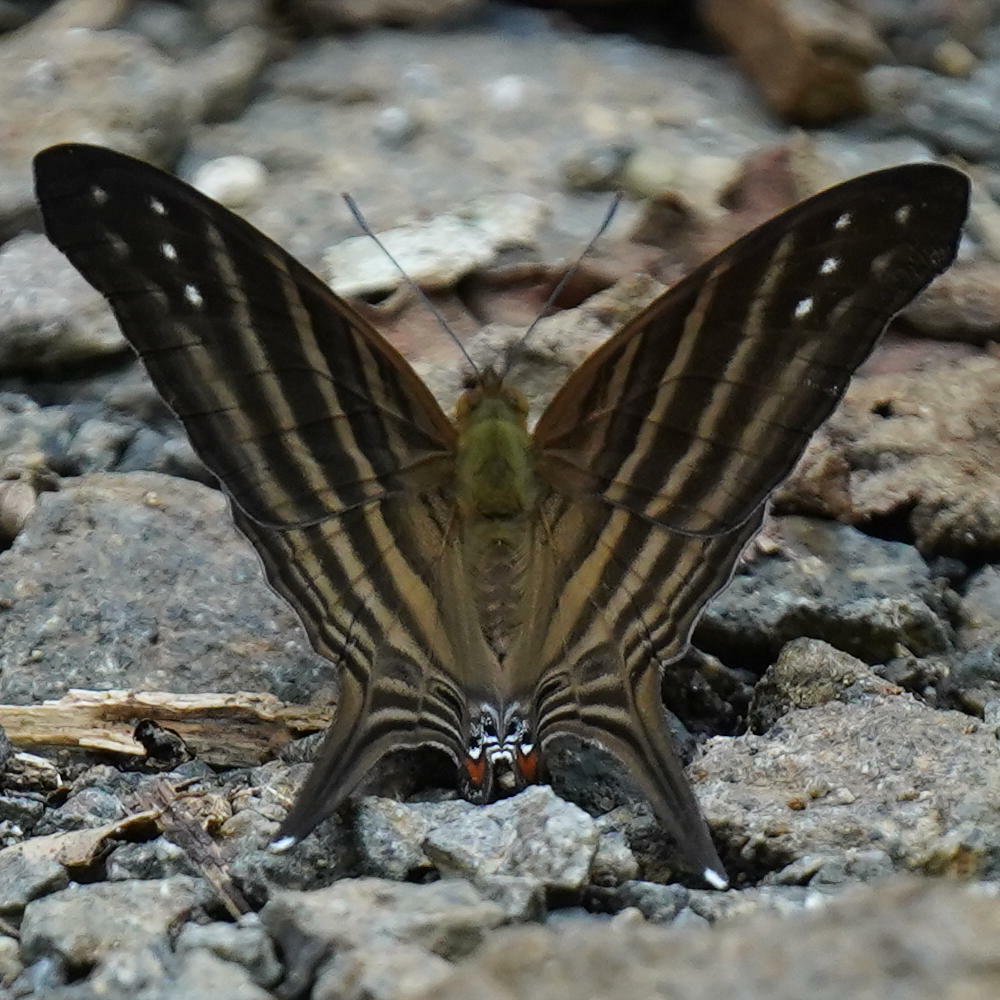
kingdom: Animalia
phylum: Arthropoda
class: Insecta
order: Lepidoptera
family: Nymphalidae
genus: Marpesia
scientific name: Marpesia chiron
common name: Many-banded daggerwing
